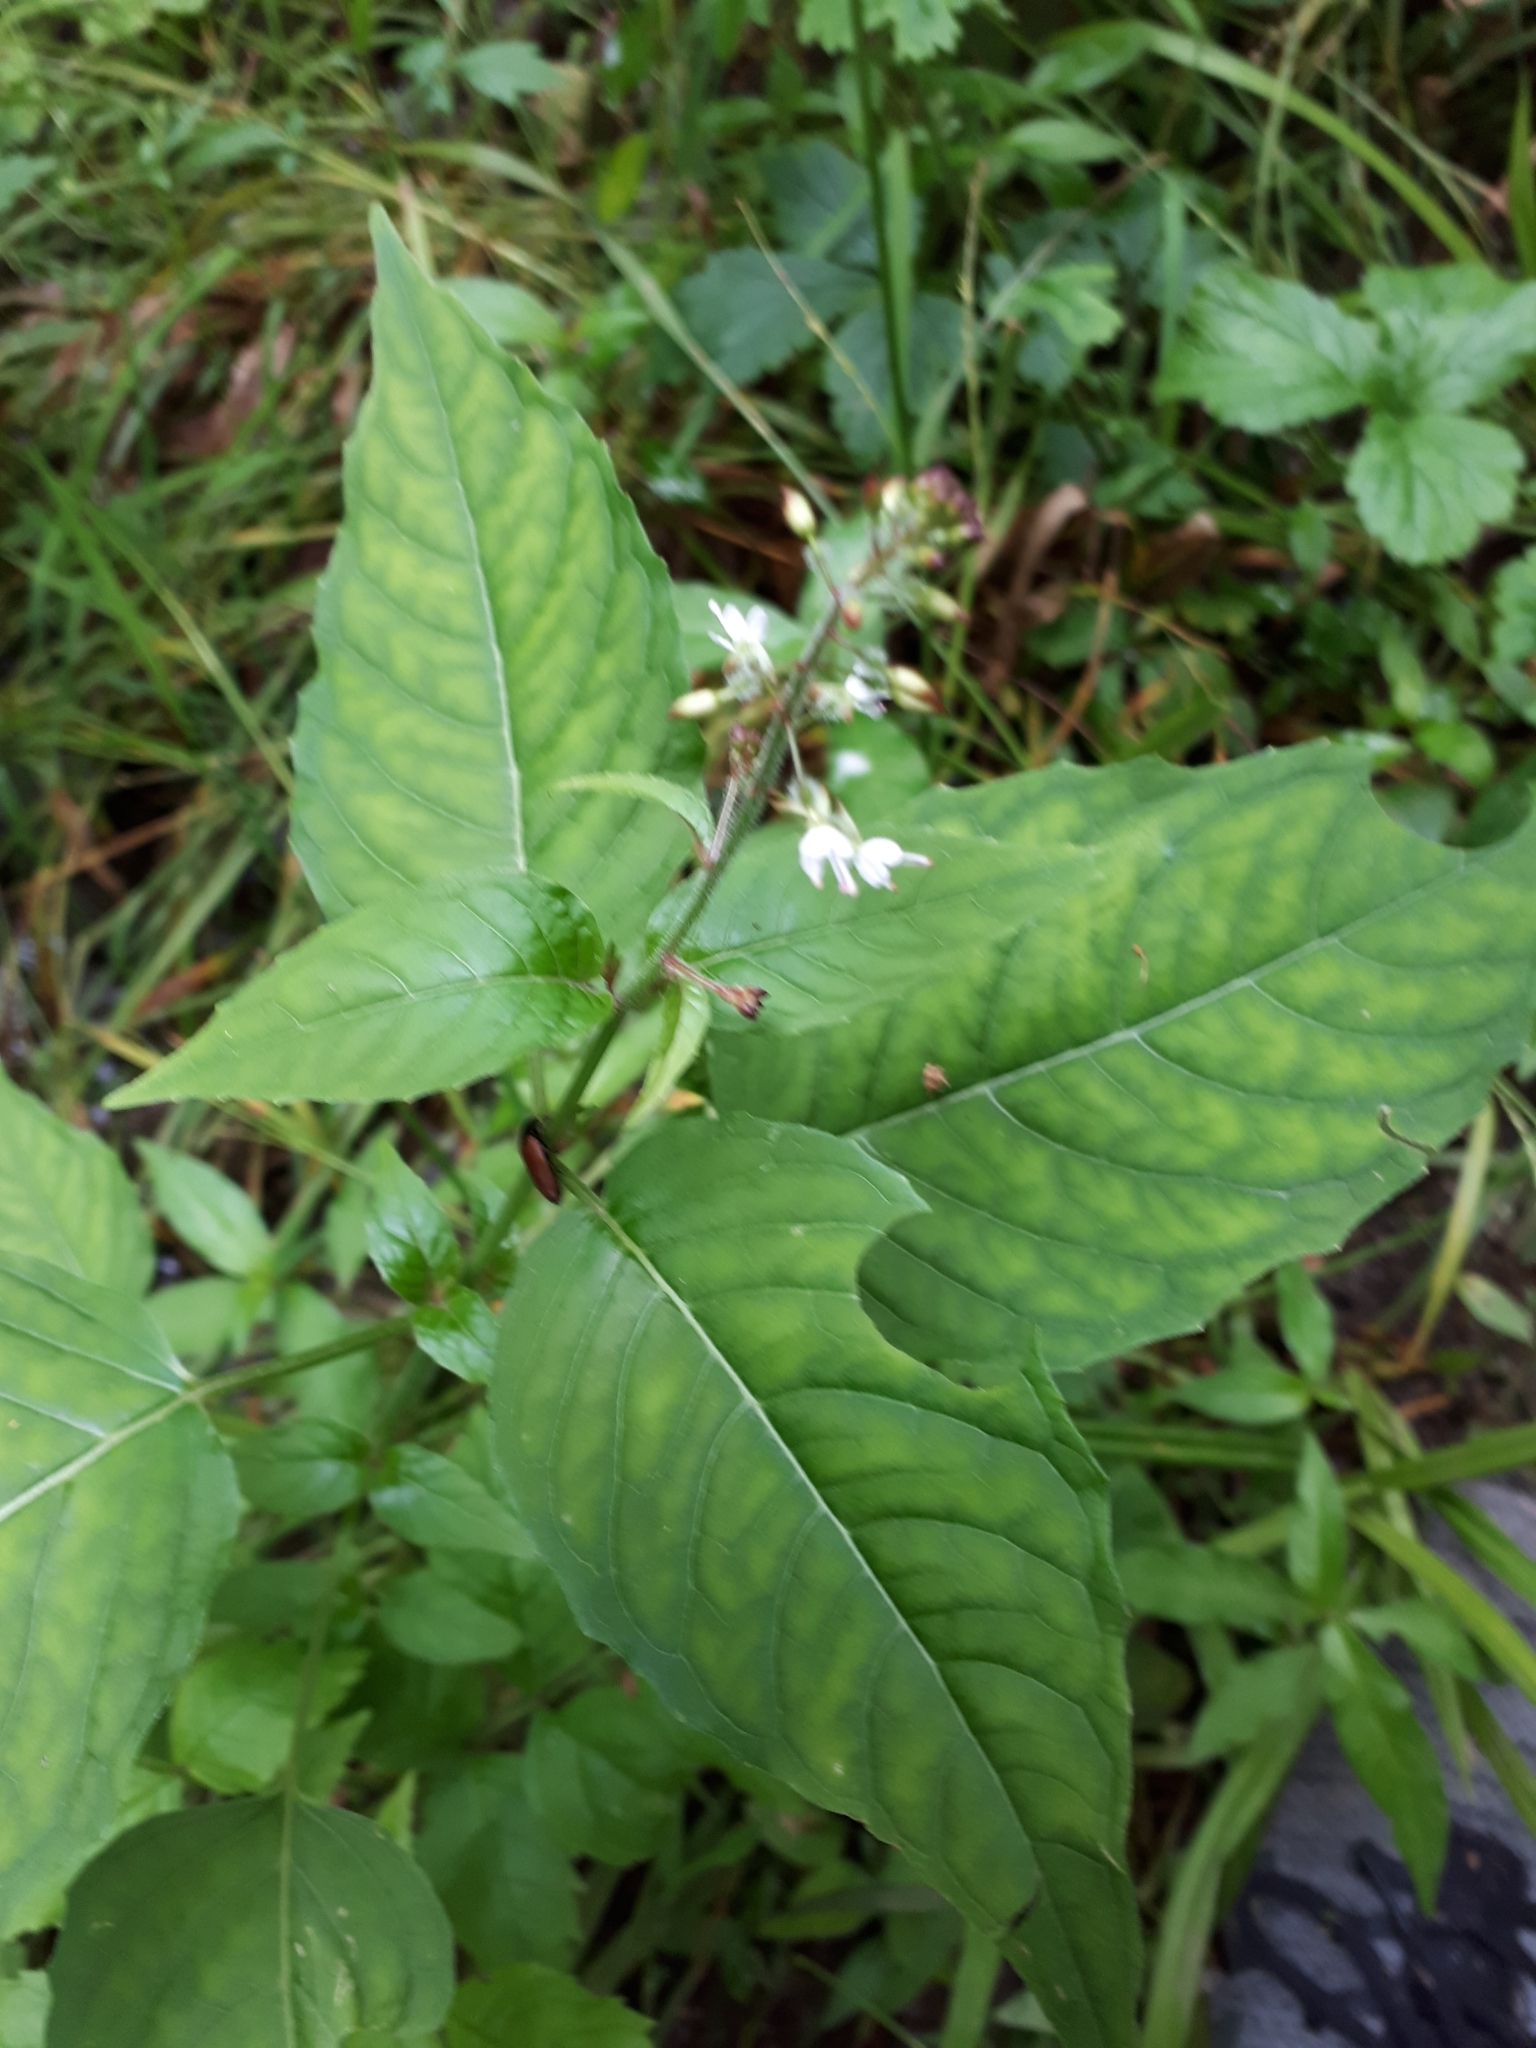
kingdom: Plantae
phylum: Tracheophyta
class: Magnoliopsida
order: Myrtales
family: Onagraceae
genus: Circaea
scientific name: Circaea lutetiana
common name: Enchanter's-nightshade
